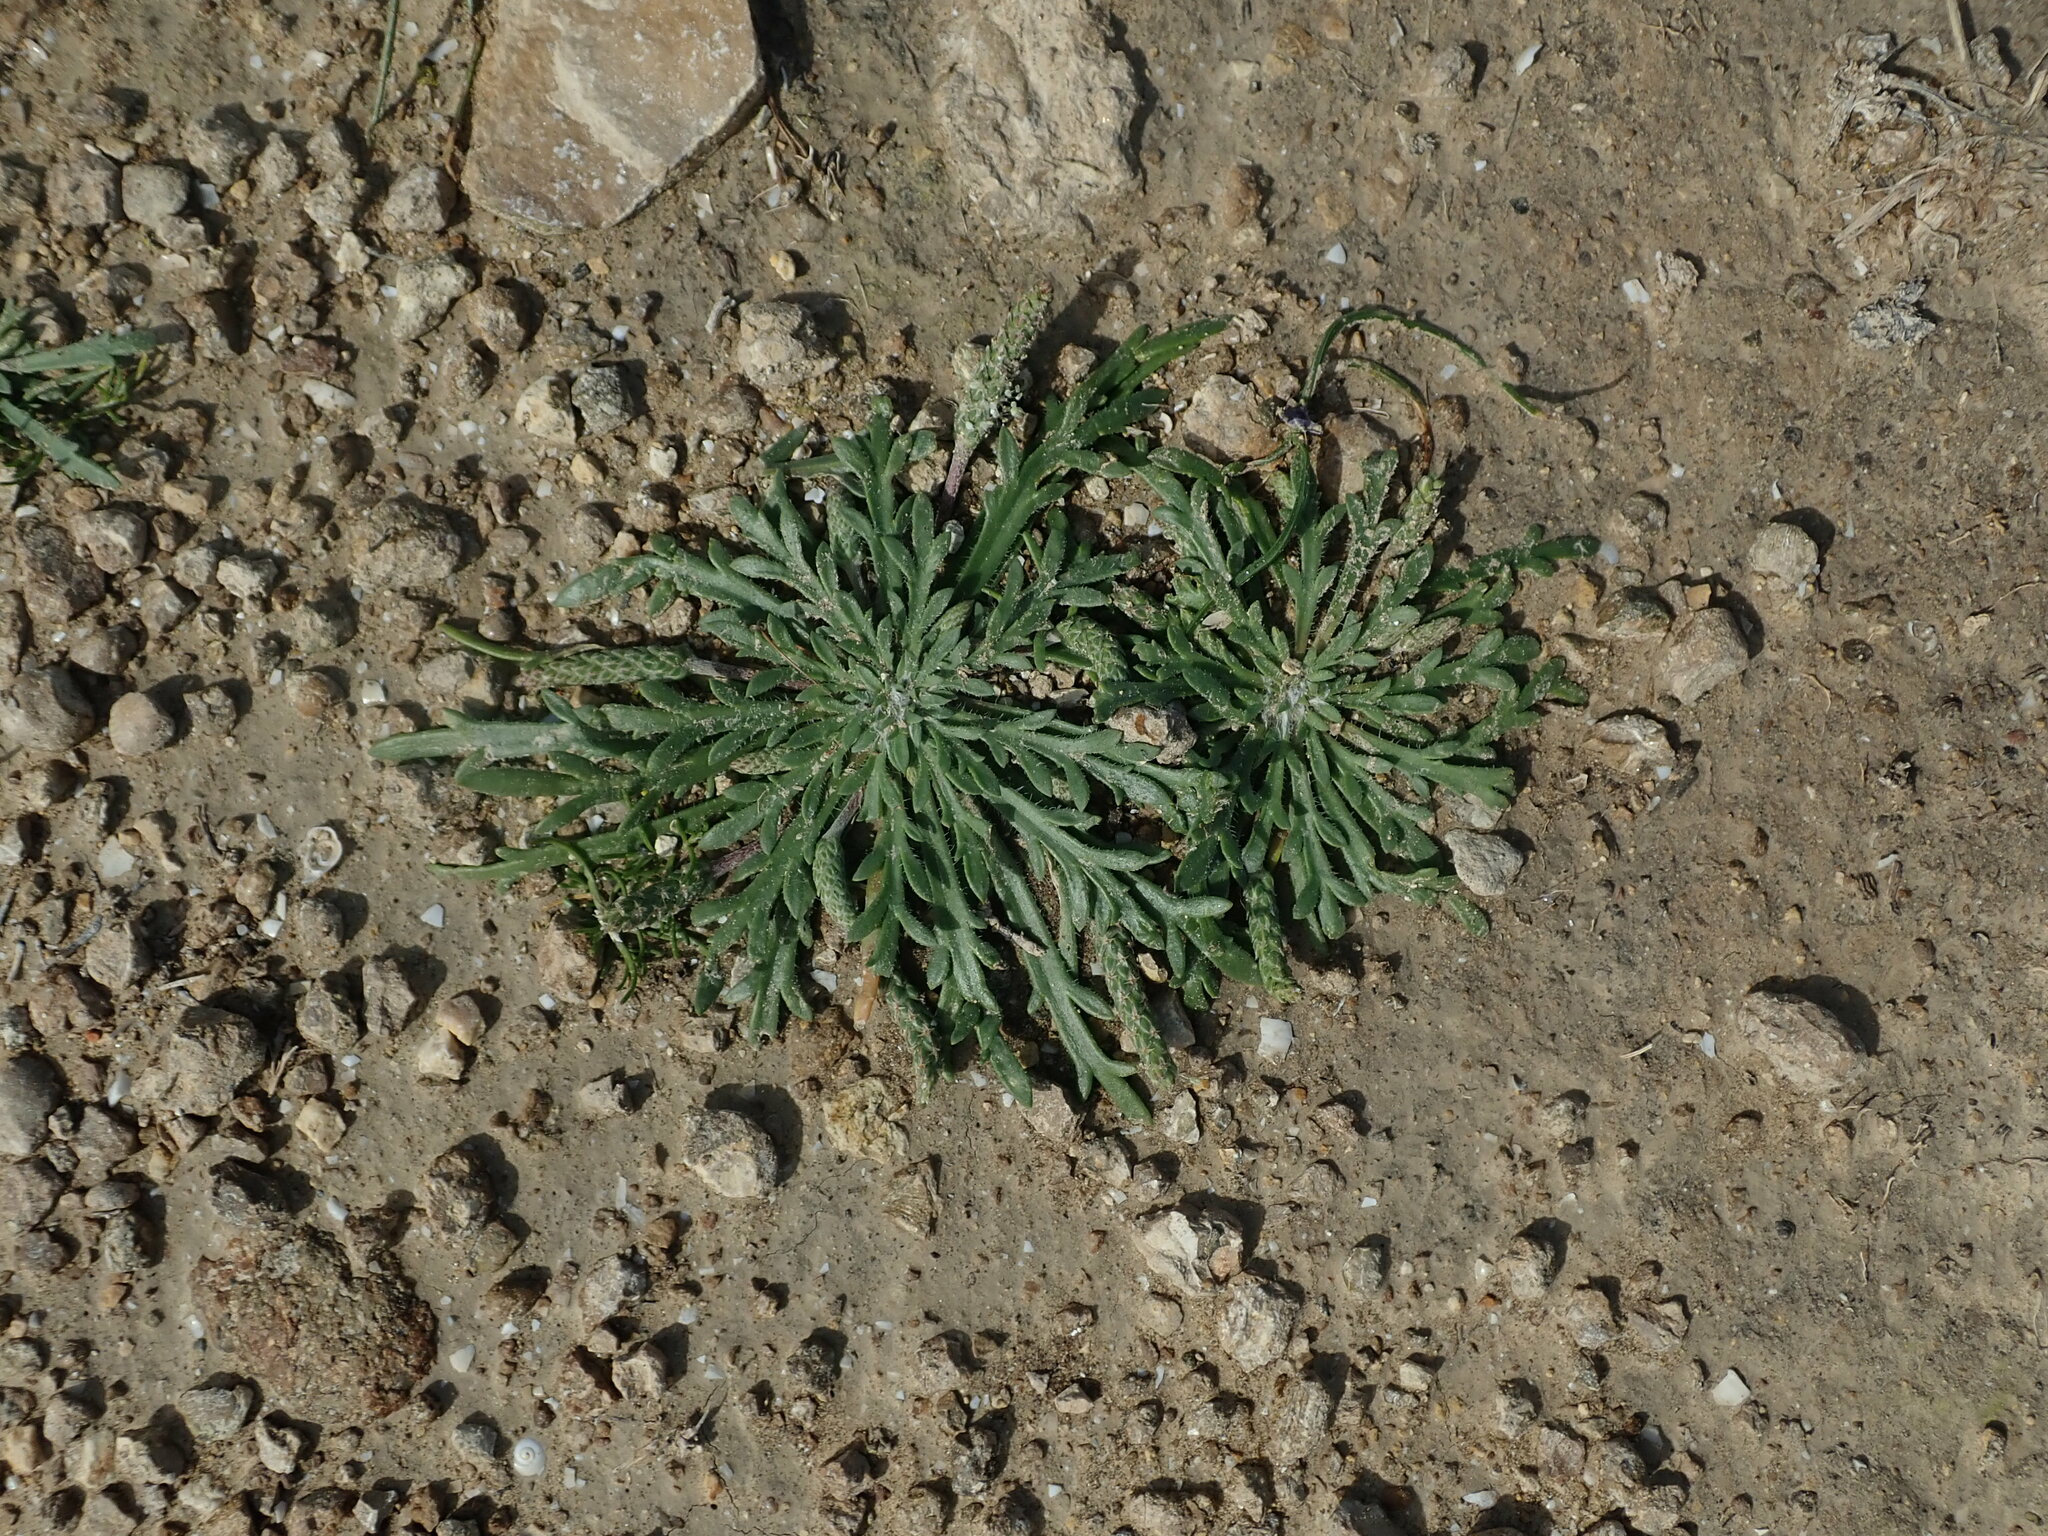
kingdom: Plantae
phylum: Tracheophyta
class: Magnoliopsida
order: Lamiales
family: Plantaginaceae
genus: Plantago
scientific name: Plantago coronopus
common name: Buck's-horn plantain
